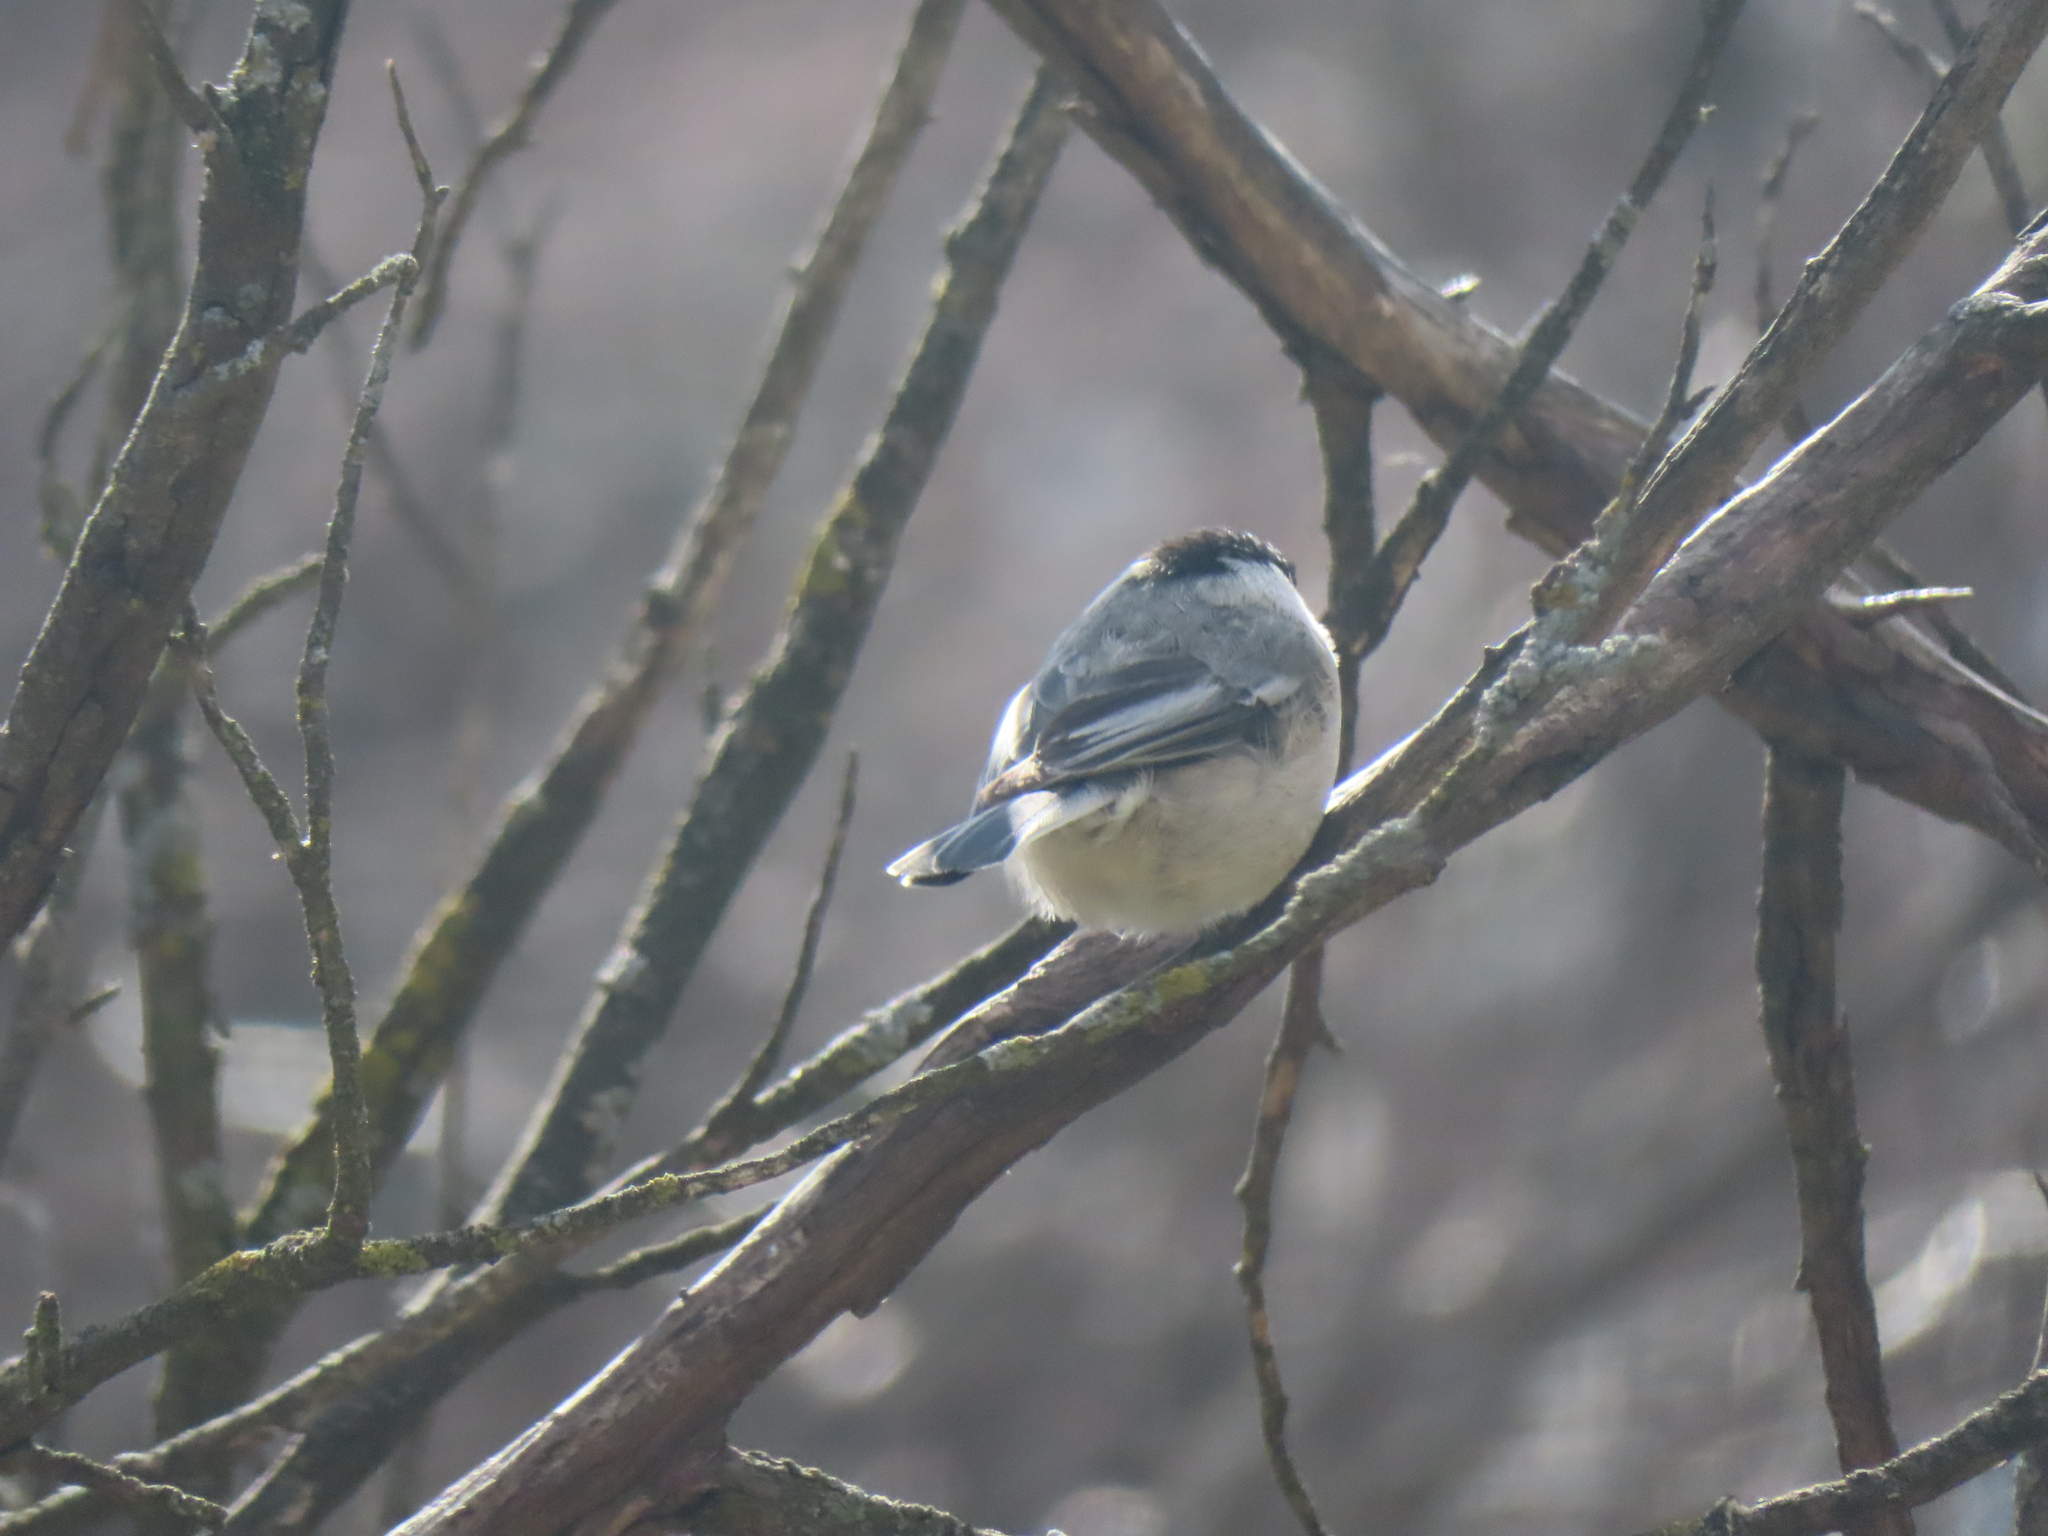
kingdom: Animalia
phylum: Chordata
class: Aves
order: Passeriformes
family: Paridae
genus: Poecile
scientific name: Poecile atricapillus
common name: Black-capped chickadee
